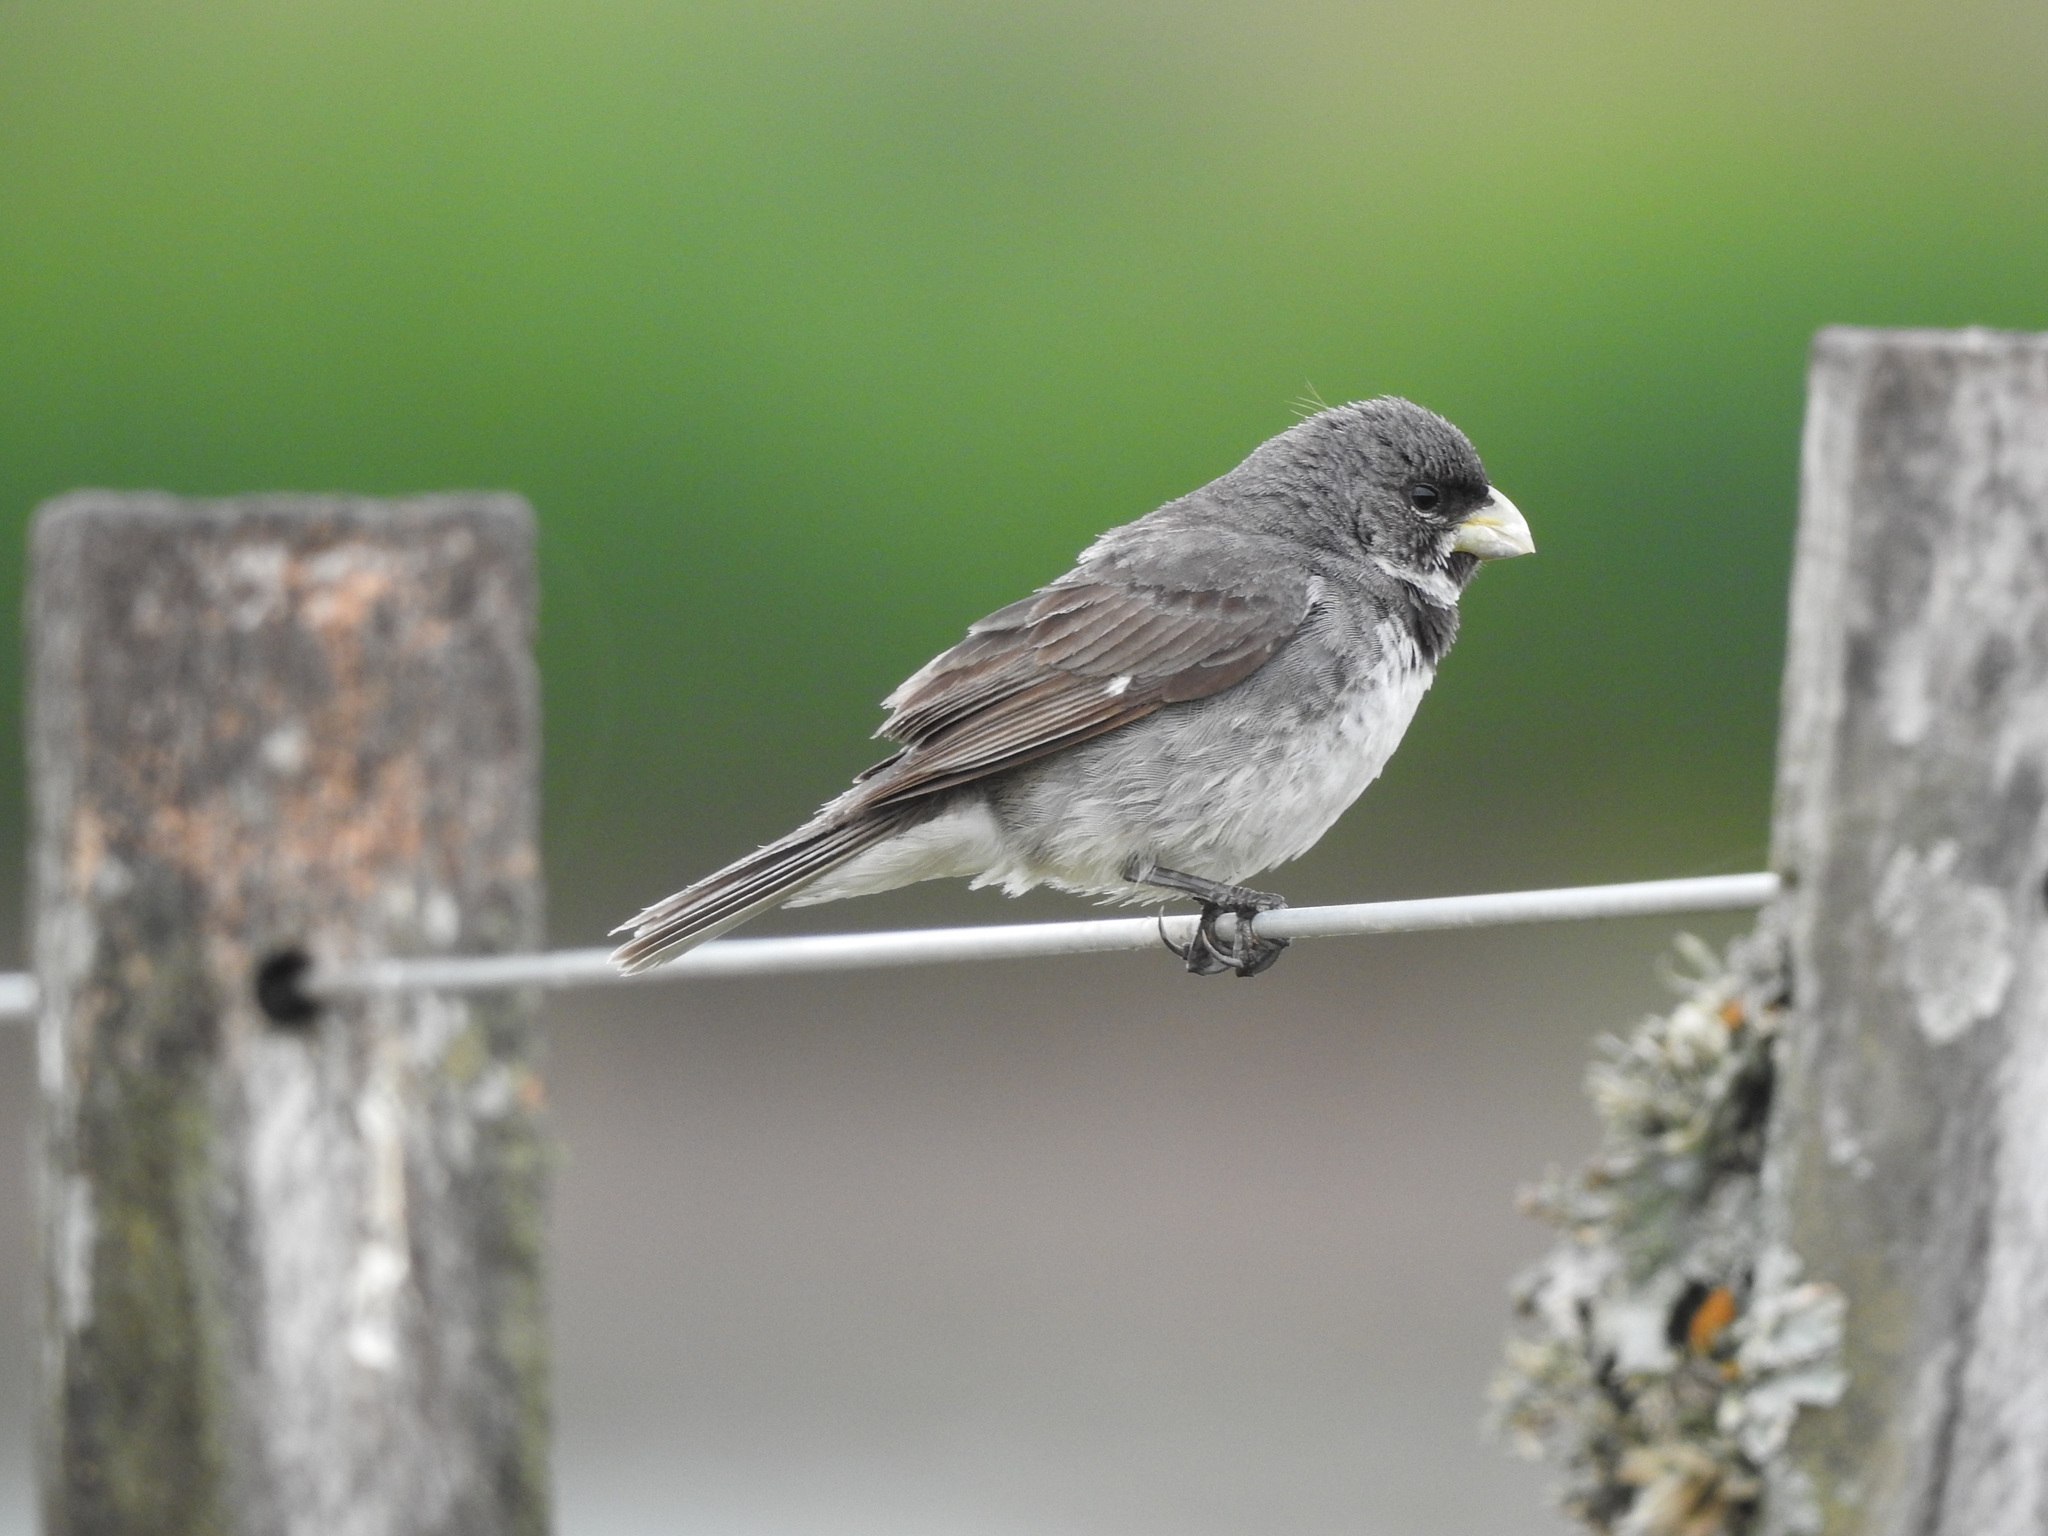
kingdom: Animalia
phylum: Chordata
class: Aves
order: Passeriformes
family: Thraupidae
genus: Sporophila
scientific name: Sporophila caerulescens
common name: Double-collared seedeater
